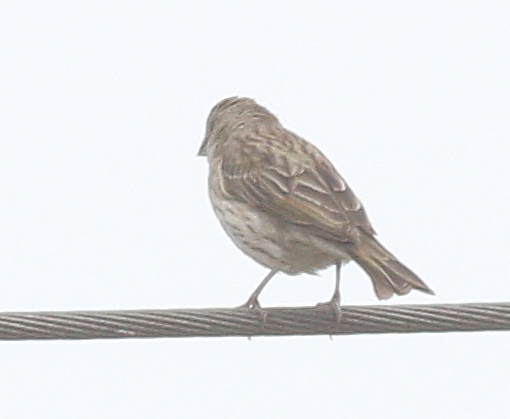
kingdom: Animalia
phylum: Chordata
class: Aves
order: Passeriformes
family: Thraupidae
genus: Sicalis
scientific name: Sicalis flaveola
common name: Saffron finch
